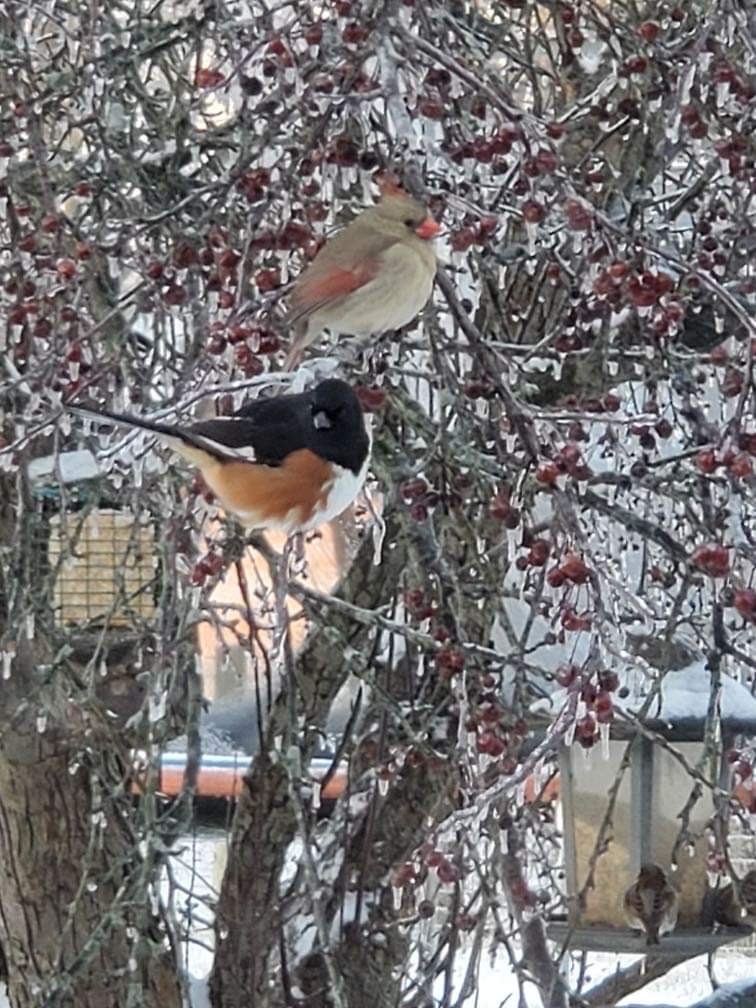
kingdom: Animalia
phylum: Chordata
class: Aves
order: Passeriformes
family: Passerellidae
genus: Pipilo
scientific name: Pipilo erythrophthalmus
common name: Eastern towhee
